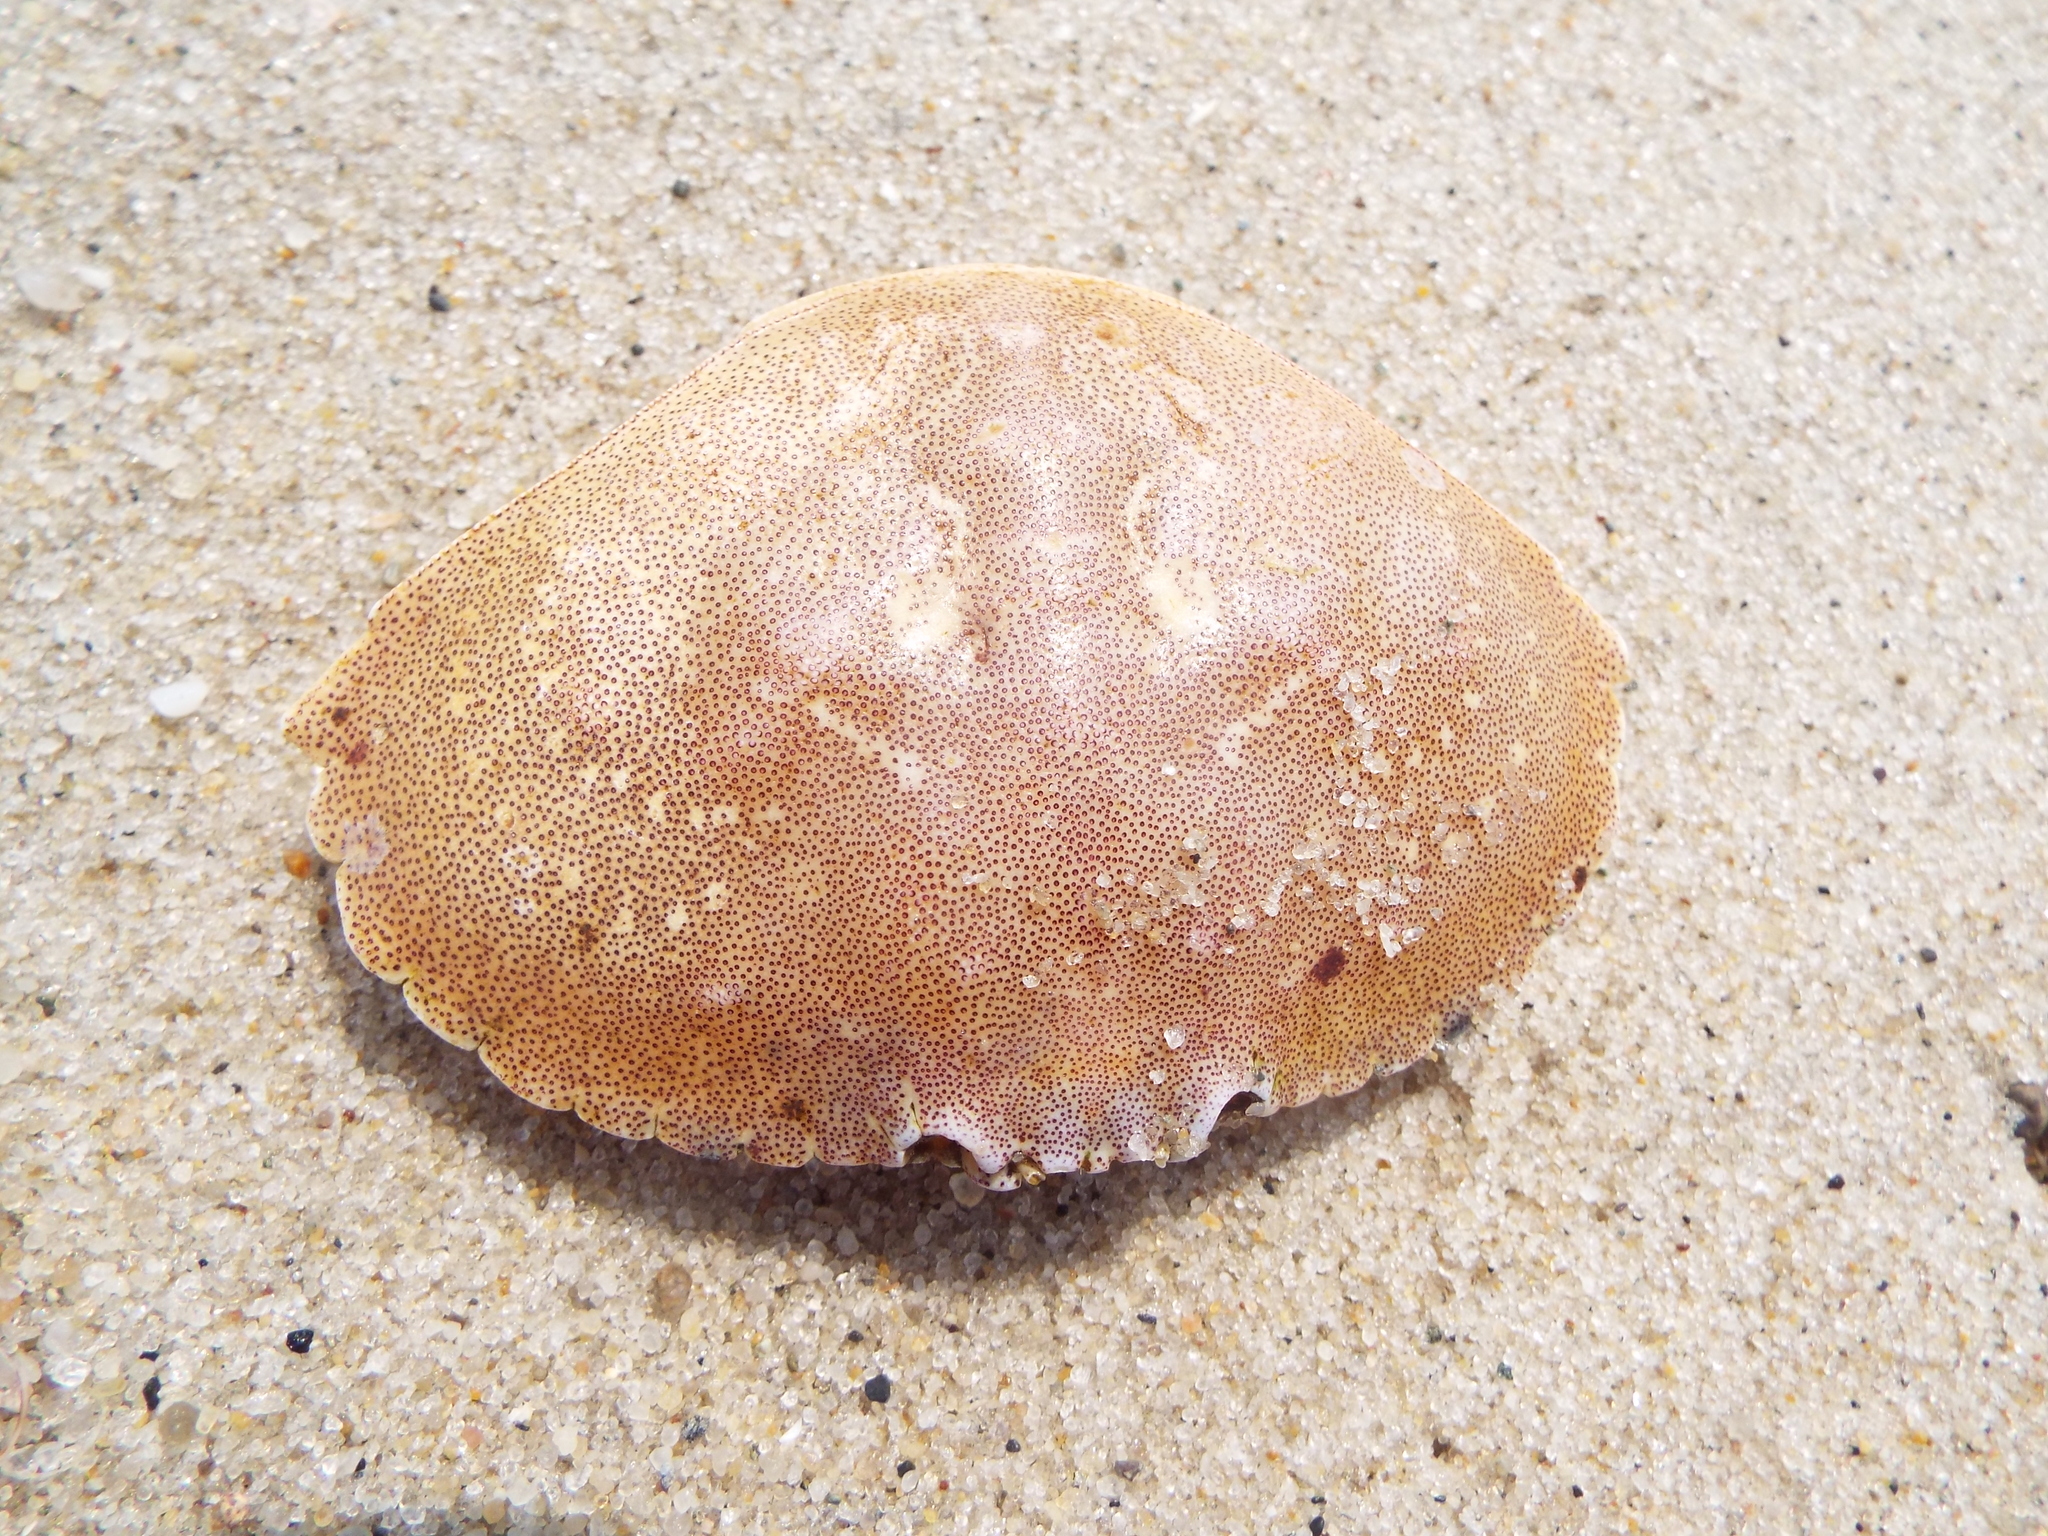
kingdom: Animalia
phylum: Arthropoda
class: Malacostraca
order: Decapoda
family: Cancridae
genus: Cancer
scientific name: Cancer irroratus
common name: Atlantic rock crab
